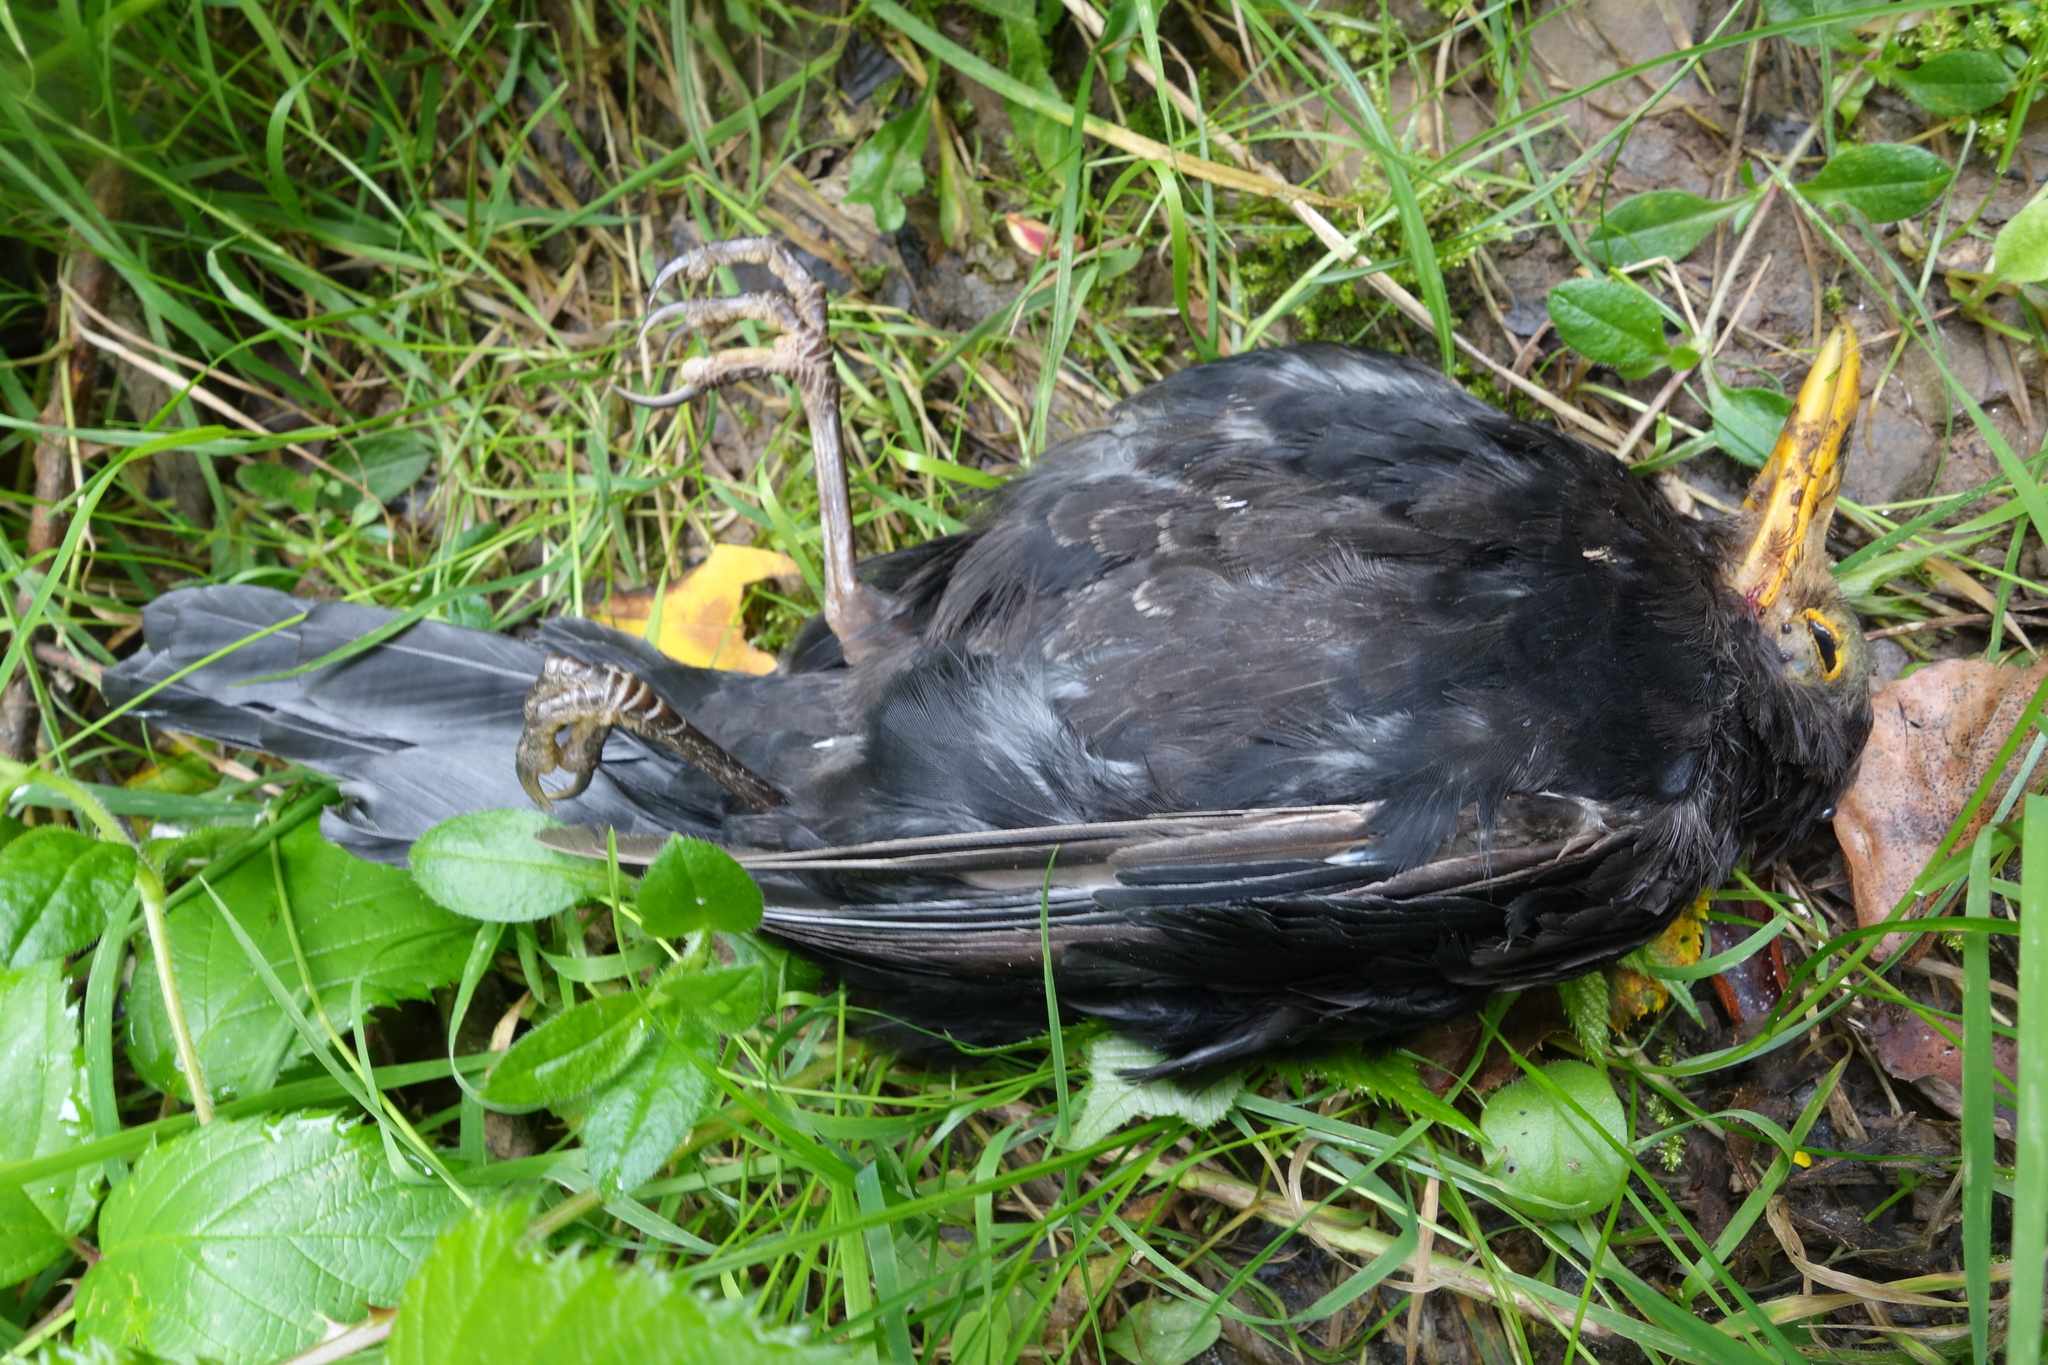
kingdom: Animalia
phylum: Chordata
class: Aves
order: Passeriformes
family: Turdidae
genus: Turdus
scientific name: Turdus merula
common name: Common blackbird
